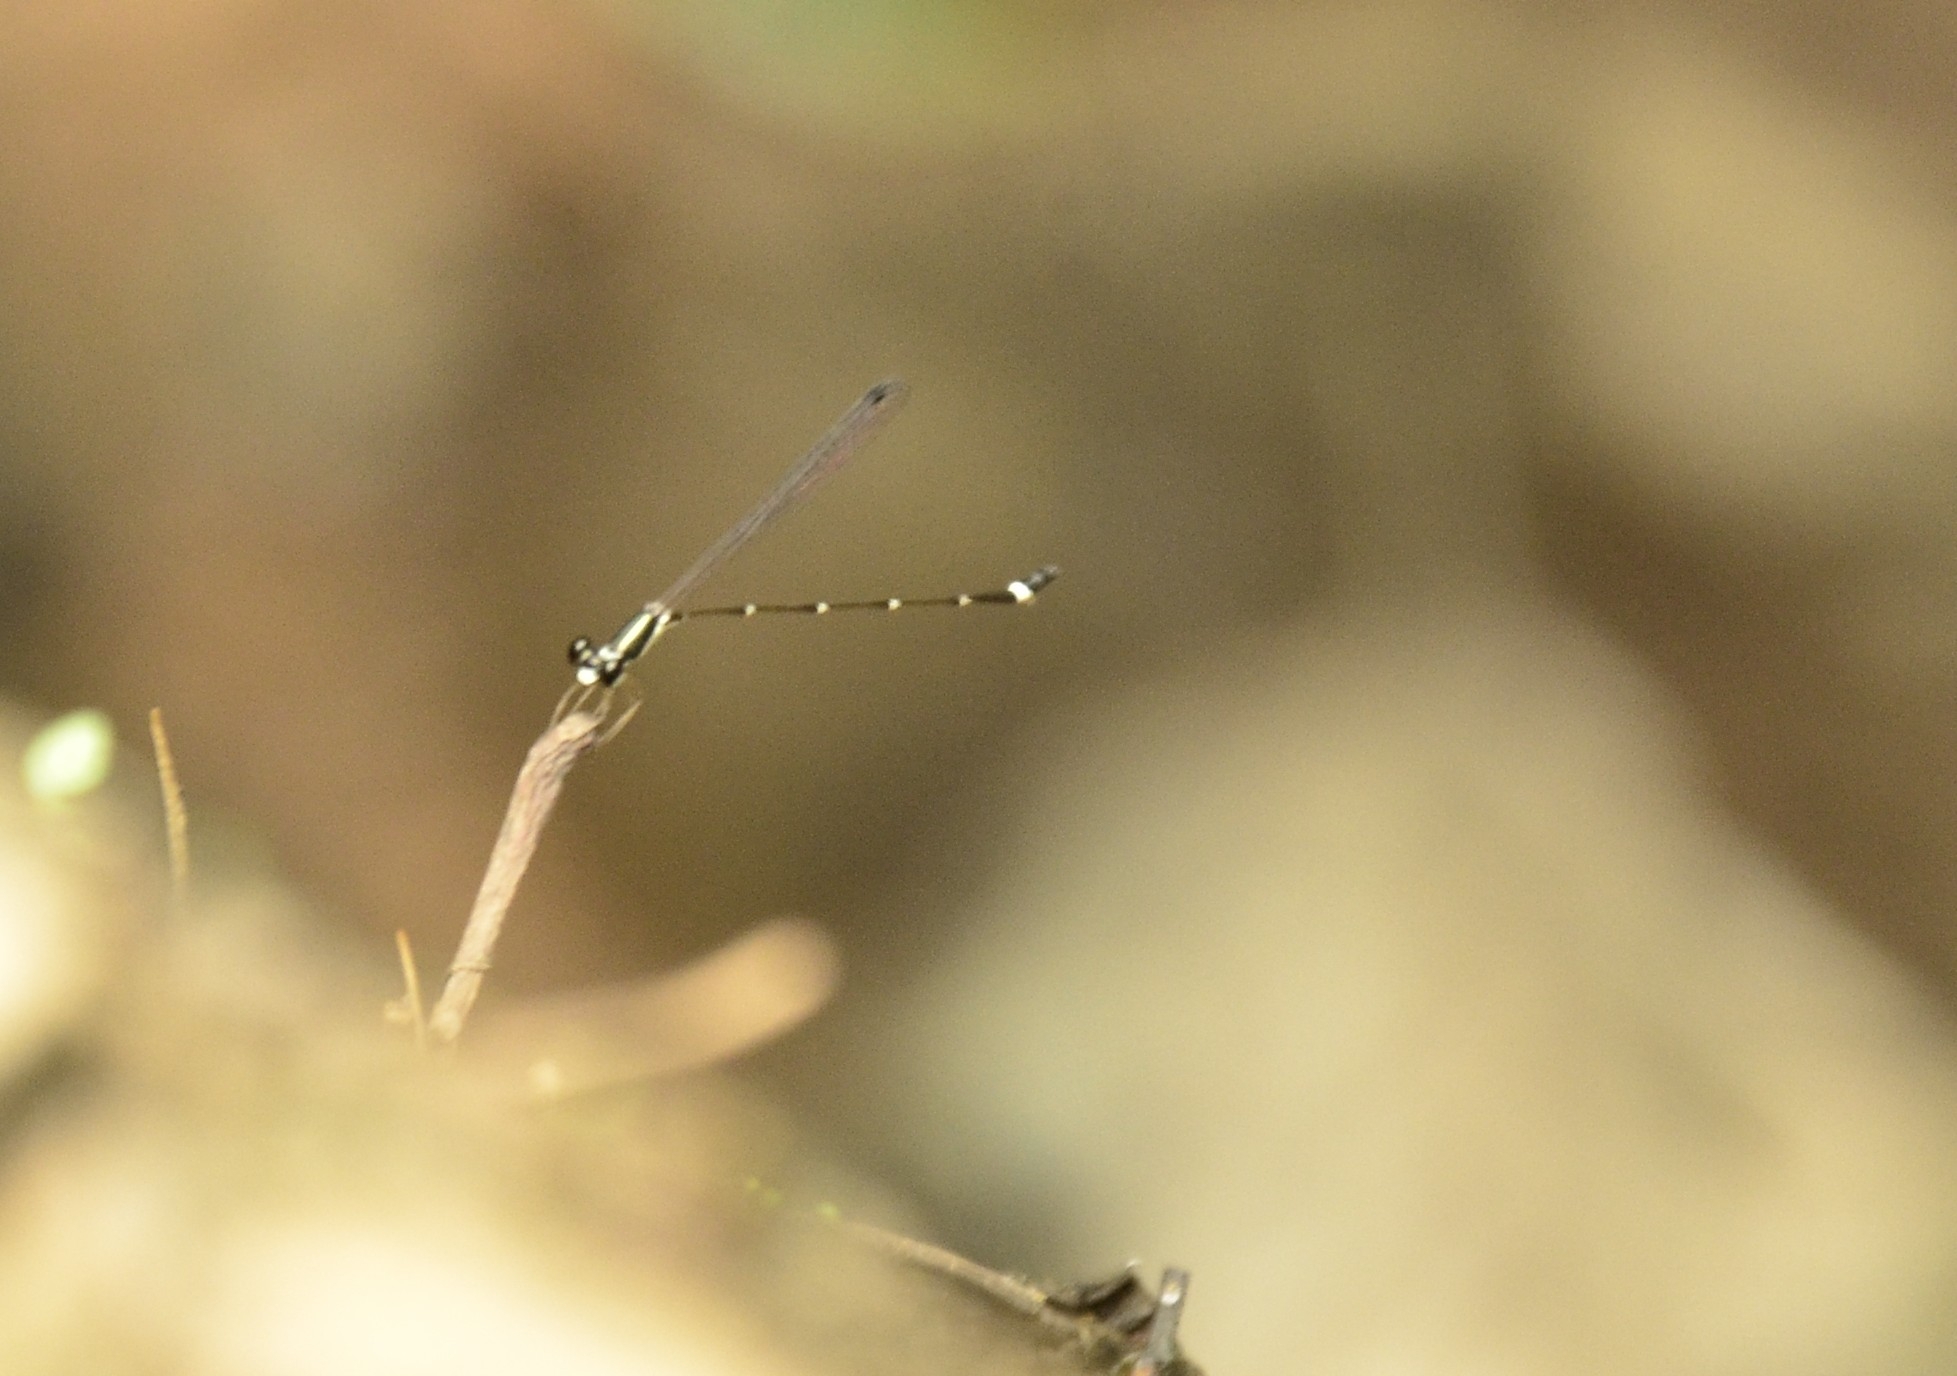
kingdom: Animalia
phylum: Arthropoda
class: Insecta
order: Odonata
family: Platystictidae
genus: Protosticta
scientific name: Protosticta gravelyi
